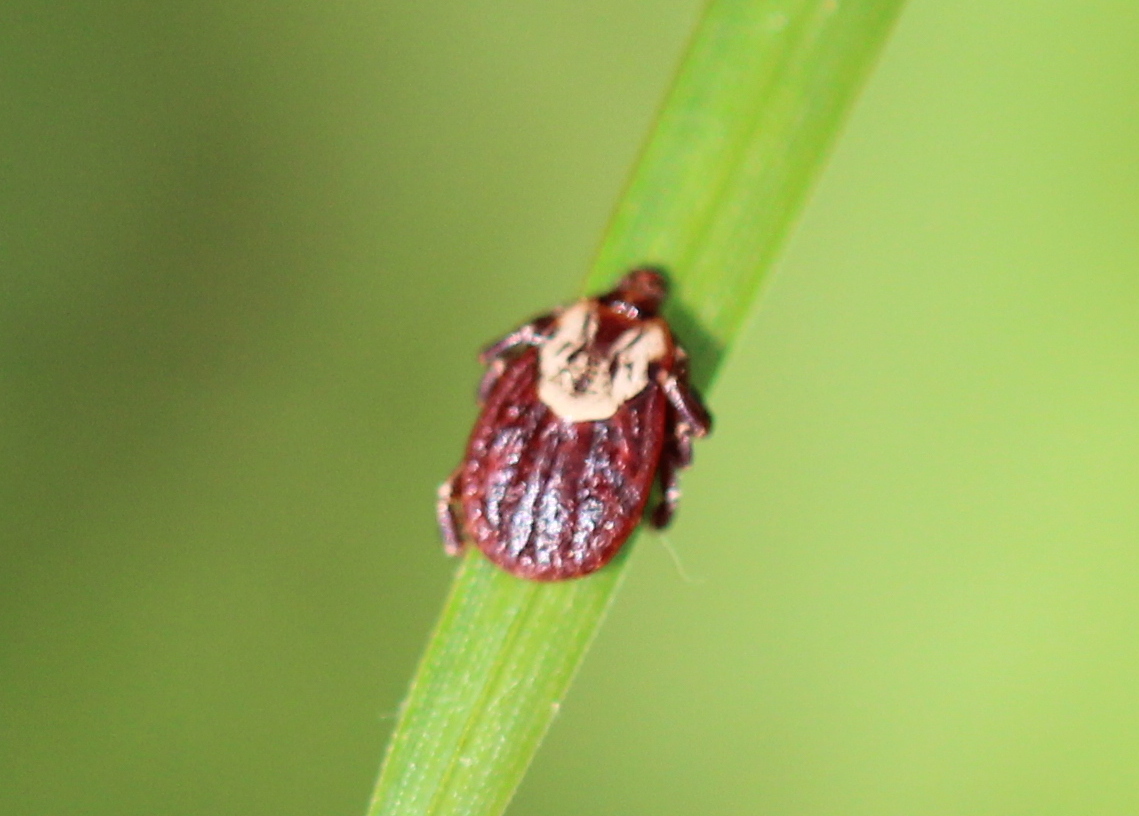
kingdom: Animalia
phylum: Arthropoda
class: Arachnida
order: Ixodida
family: Ixodidae
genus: Dermacentor
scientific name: Dermacentor variabilis
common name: American dog tick
